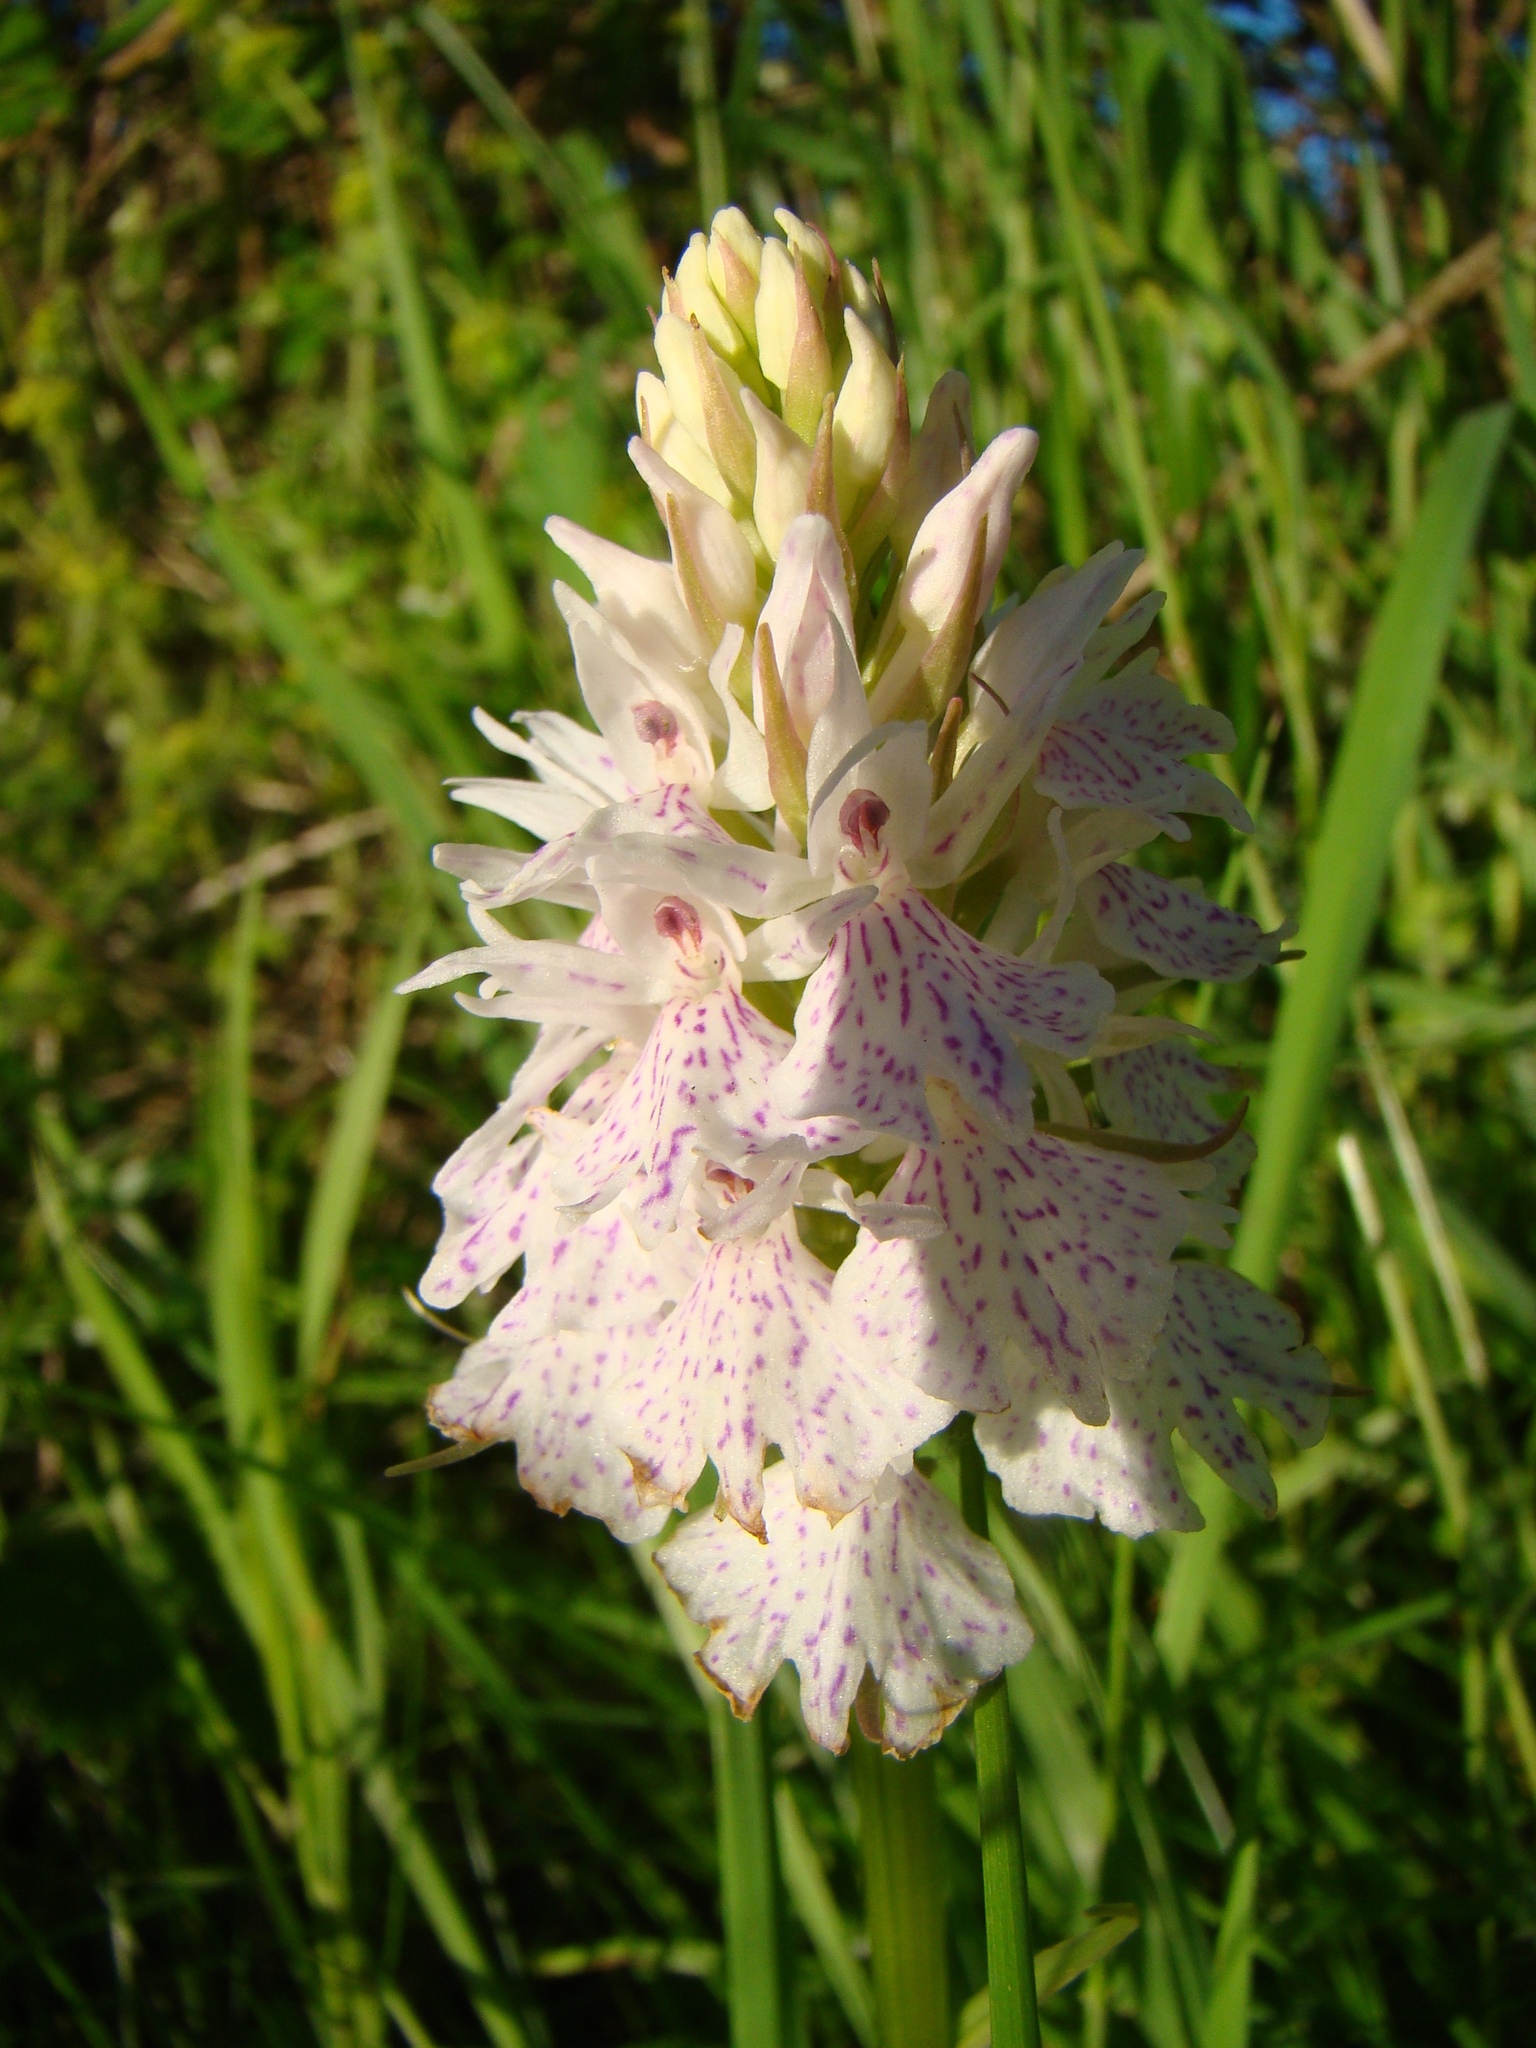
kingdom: Plantae
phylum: Tracheophyta
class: Liliopsida
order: Asparagales
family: Orchidaceae
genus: Dactylorhiza
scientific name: Dactylorhiza maculata
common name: Heath spotted-orchid
